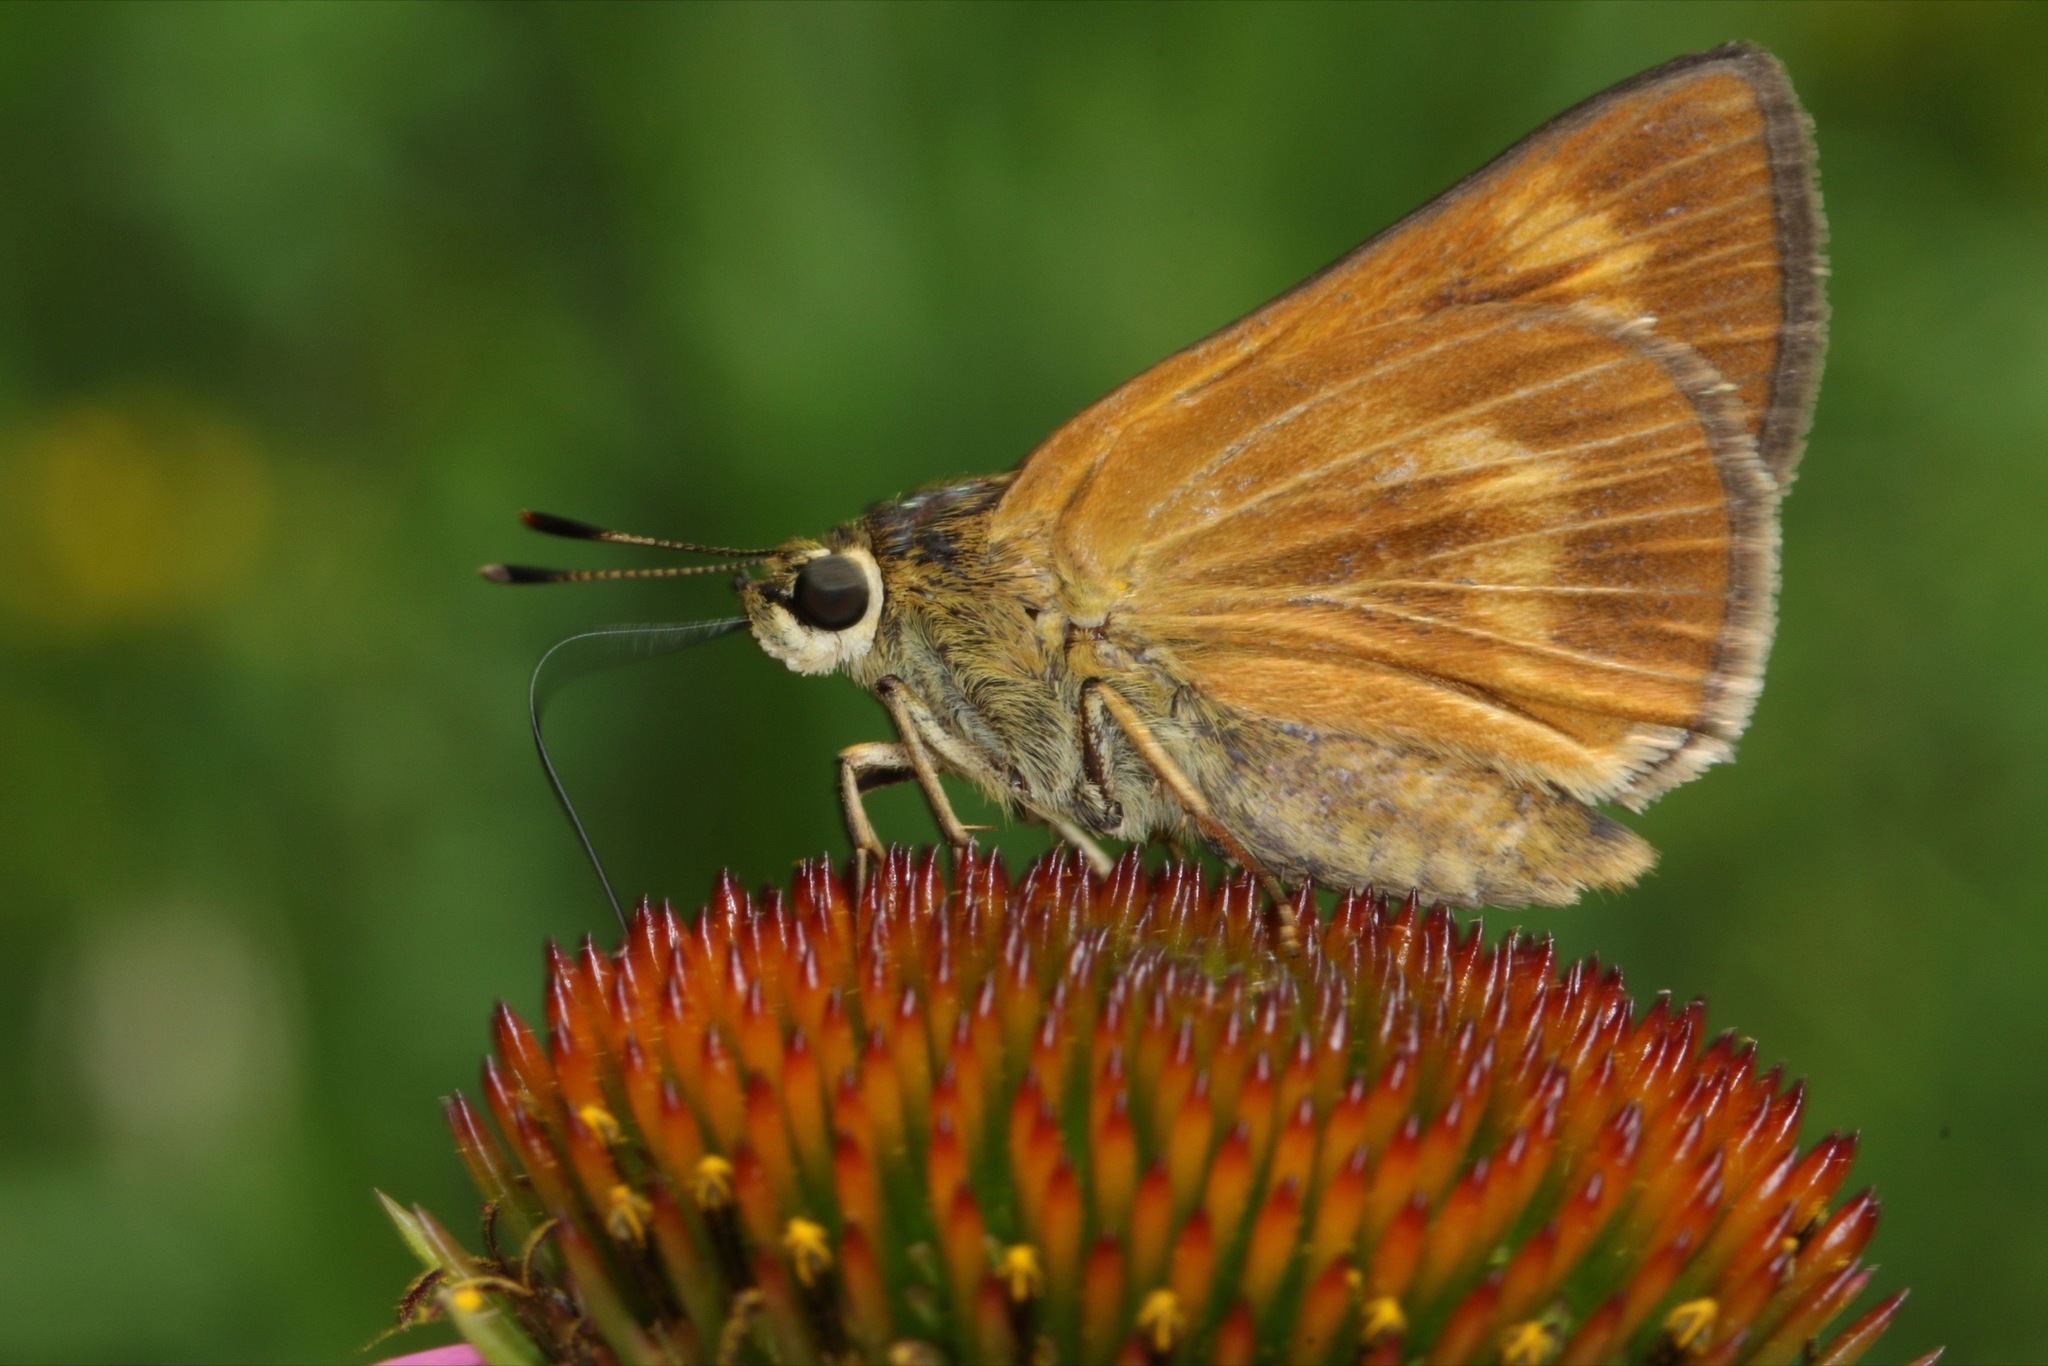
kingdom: Animalia
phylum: Arthropoda
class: Insecta
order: Lepidoptera
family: Hesperiidae
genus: Problema
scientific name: Problema byssus
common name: Byssus skipper
